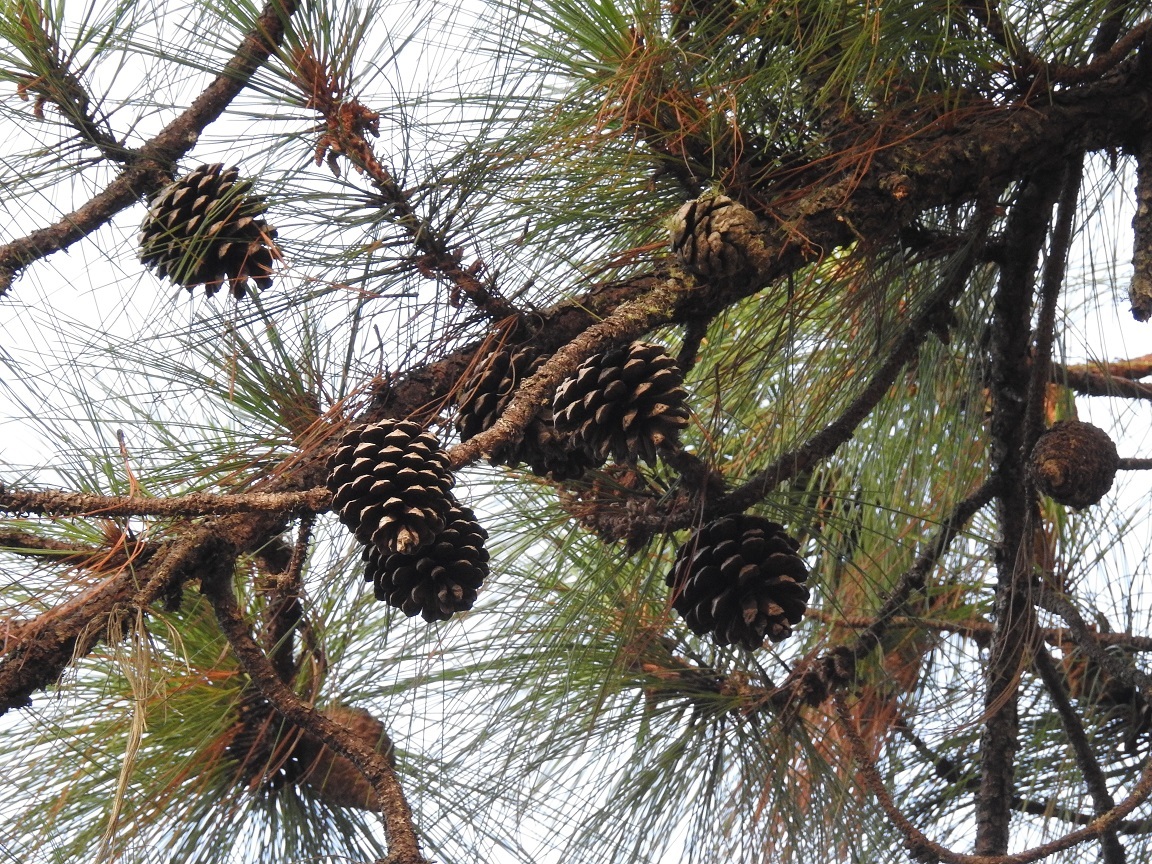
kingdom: Plantae
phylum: Tracheophyta
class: Pinopsida
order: Pinales
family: Pinaceae
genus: Pinus
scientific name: Pinus oocarpa
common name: Egg-cone pine
